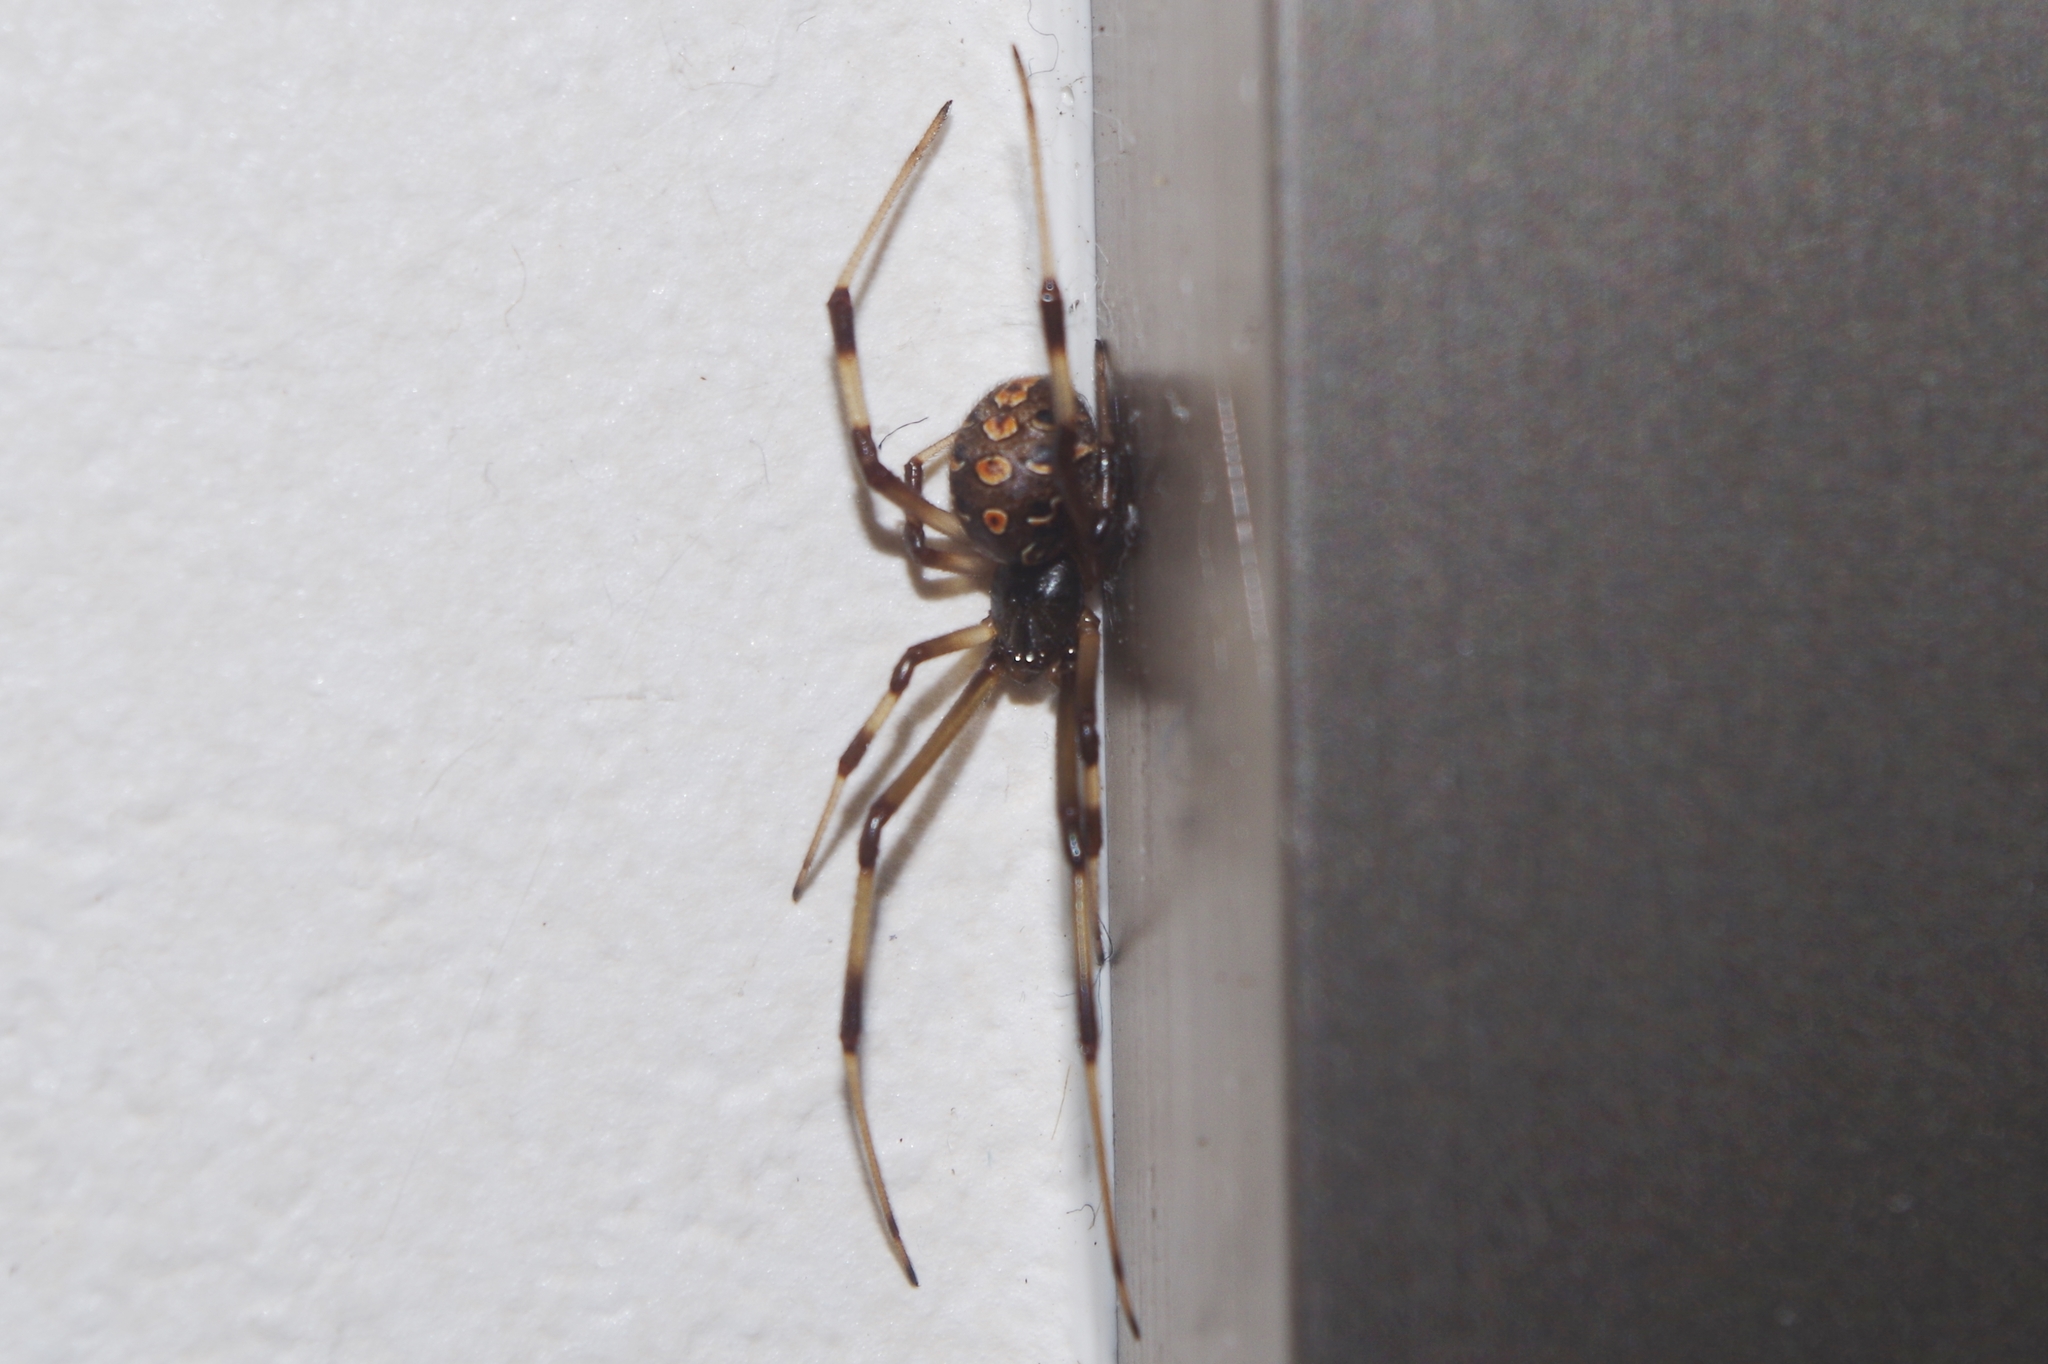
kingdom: Animalia
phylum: Arthropoda
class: Arachnida
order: Araneae
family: Theridiidae
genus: Latrodectus
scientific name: Latrodectus geometricus
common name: Brown widow spider
